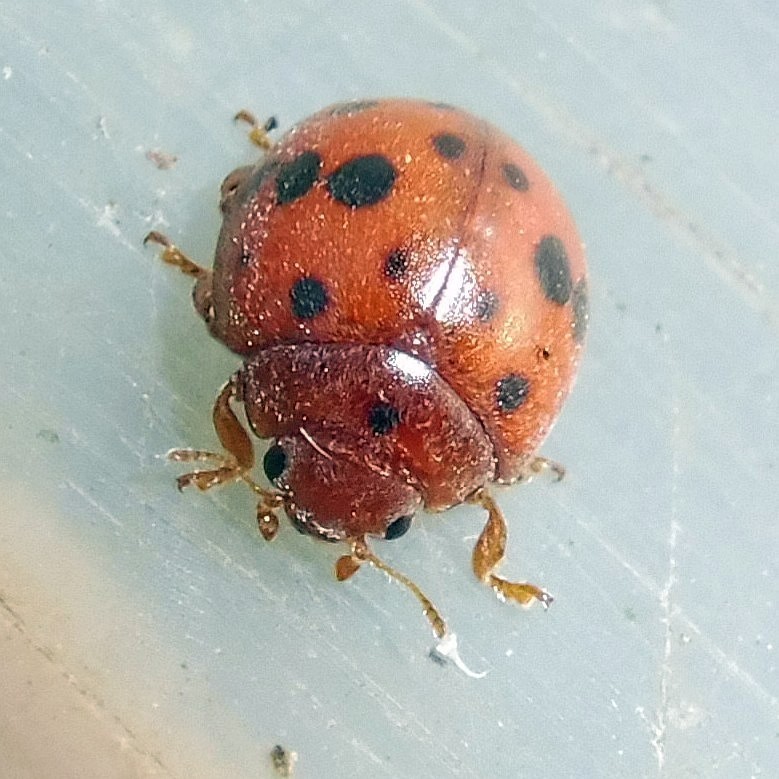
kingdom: Animalia
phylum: Arthropoda
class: Insecta
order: Coleoptera
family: Coccinellidae
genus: Subcoccinella
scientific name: Subcoccinella vigintiquatuorpunctata
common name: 24-spot ladybird
